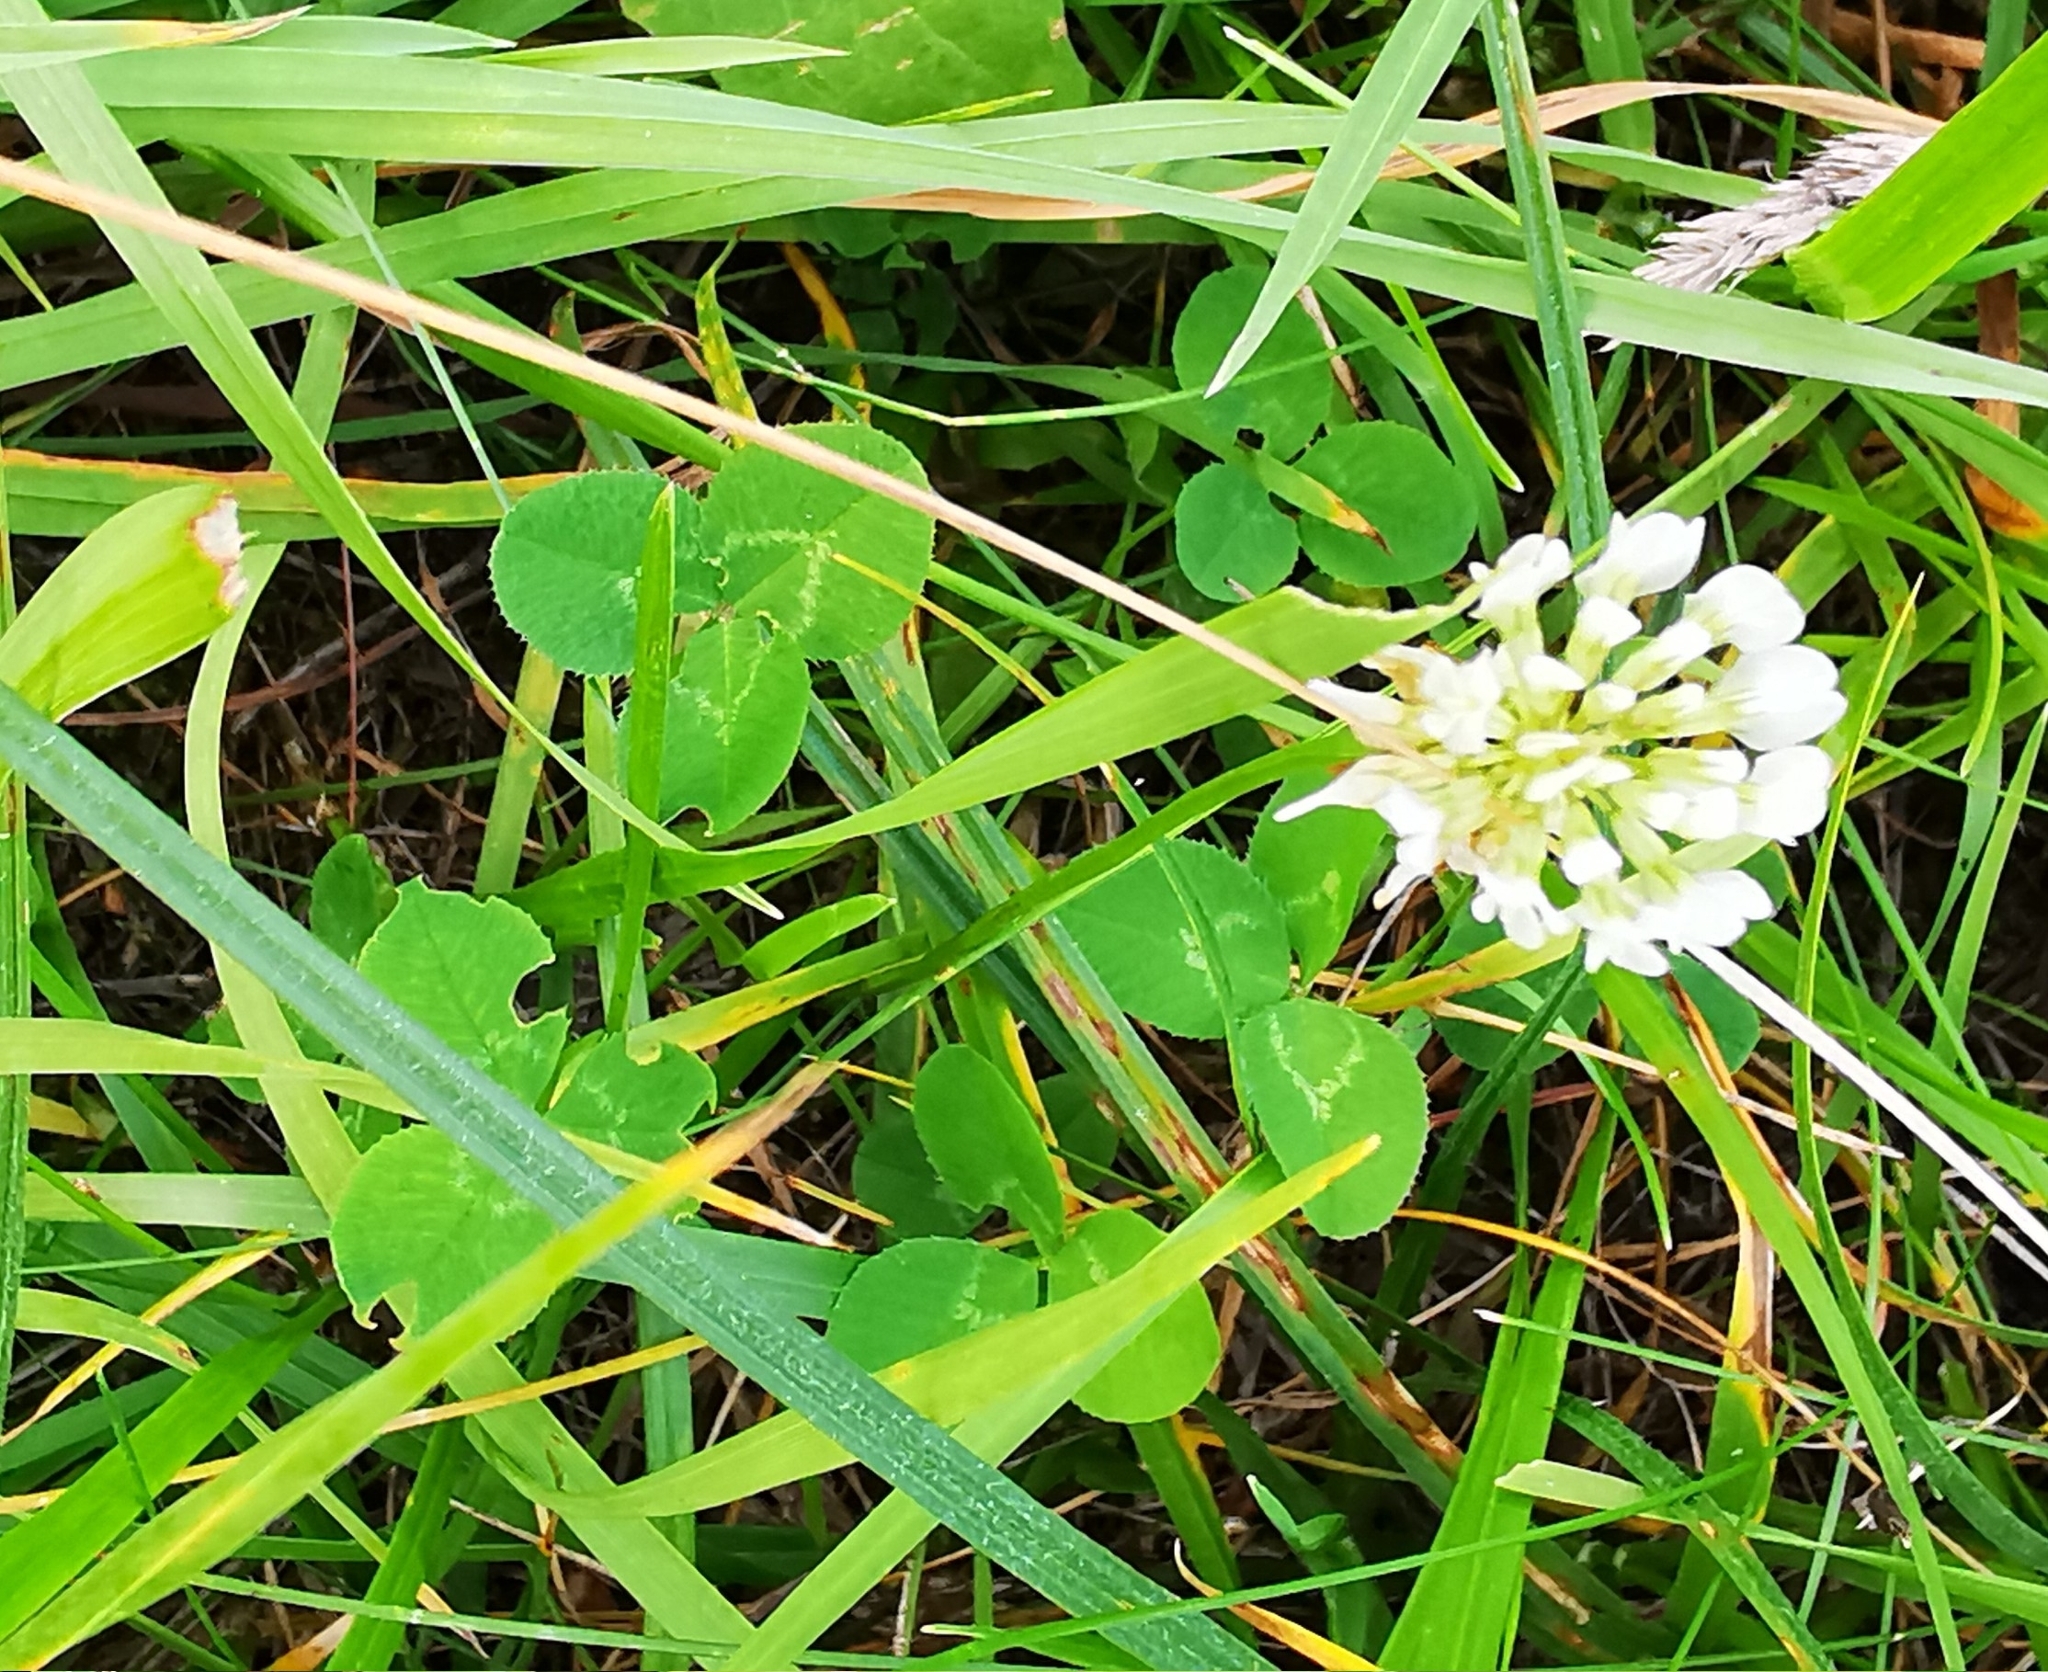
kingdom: Plantae
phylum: Tracheophyta
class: Magnoliopsida
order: Fabales
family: Fabaceae
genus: Trifolium
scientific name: Trifolium repens
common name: White clover
